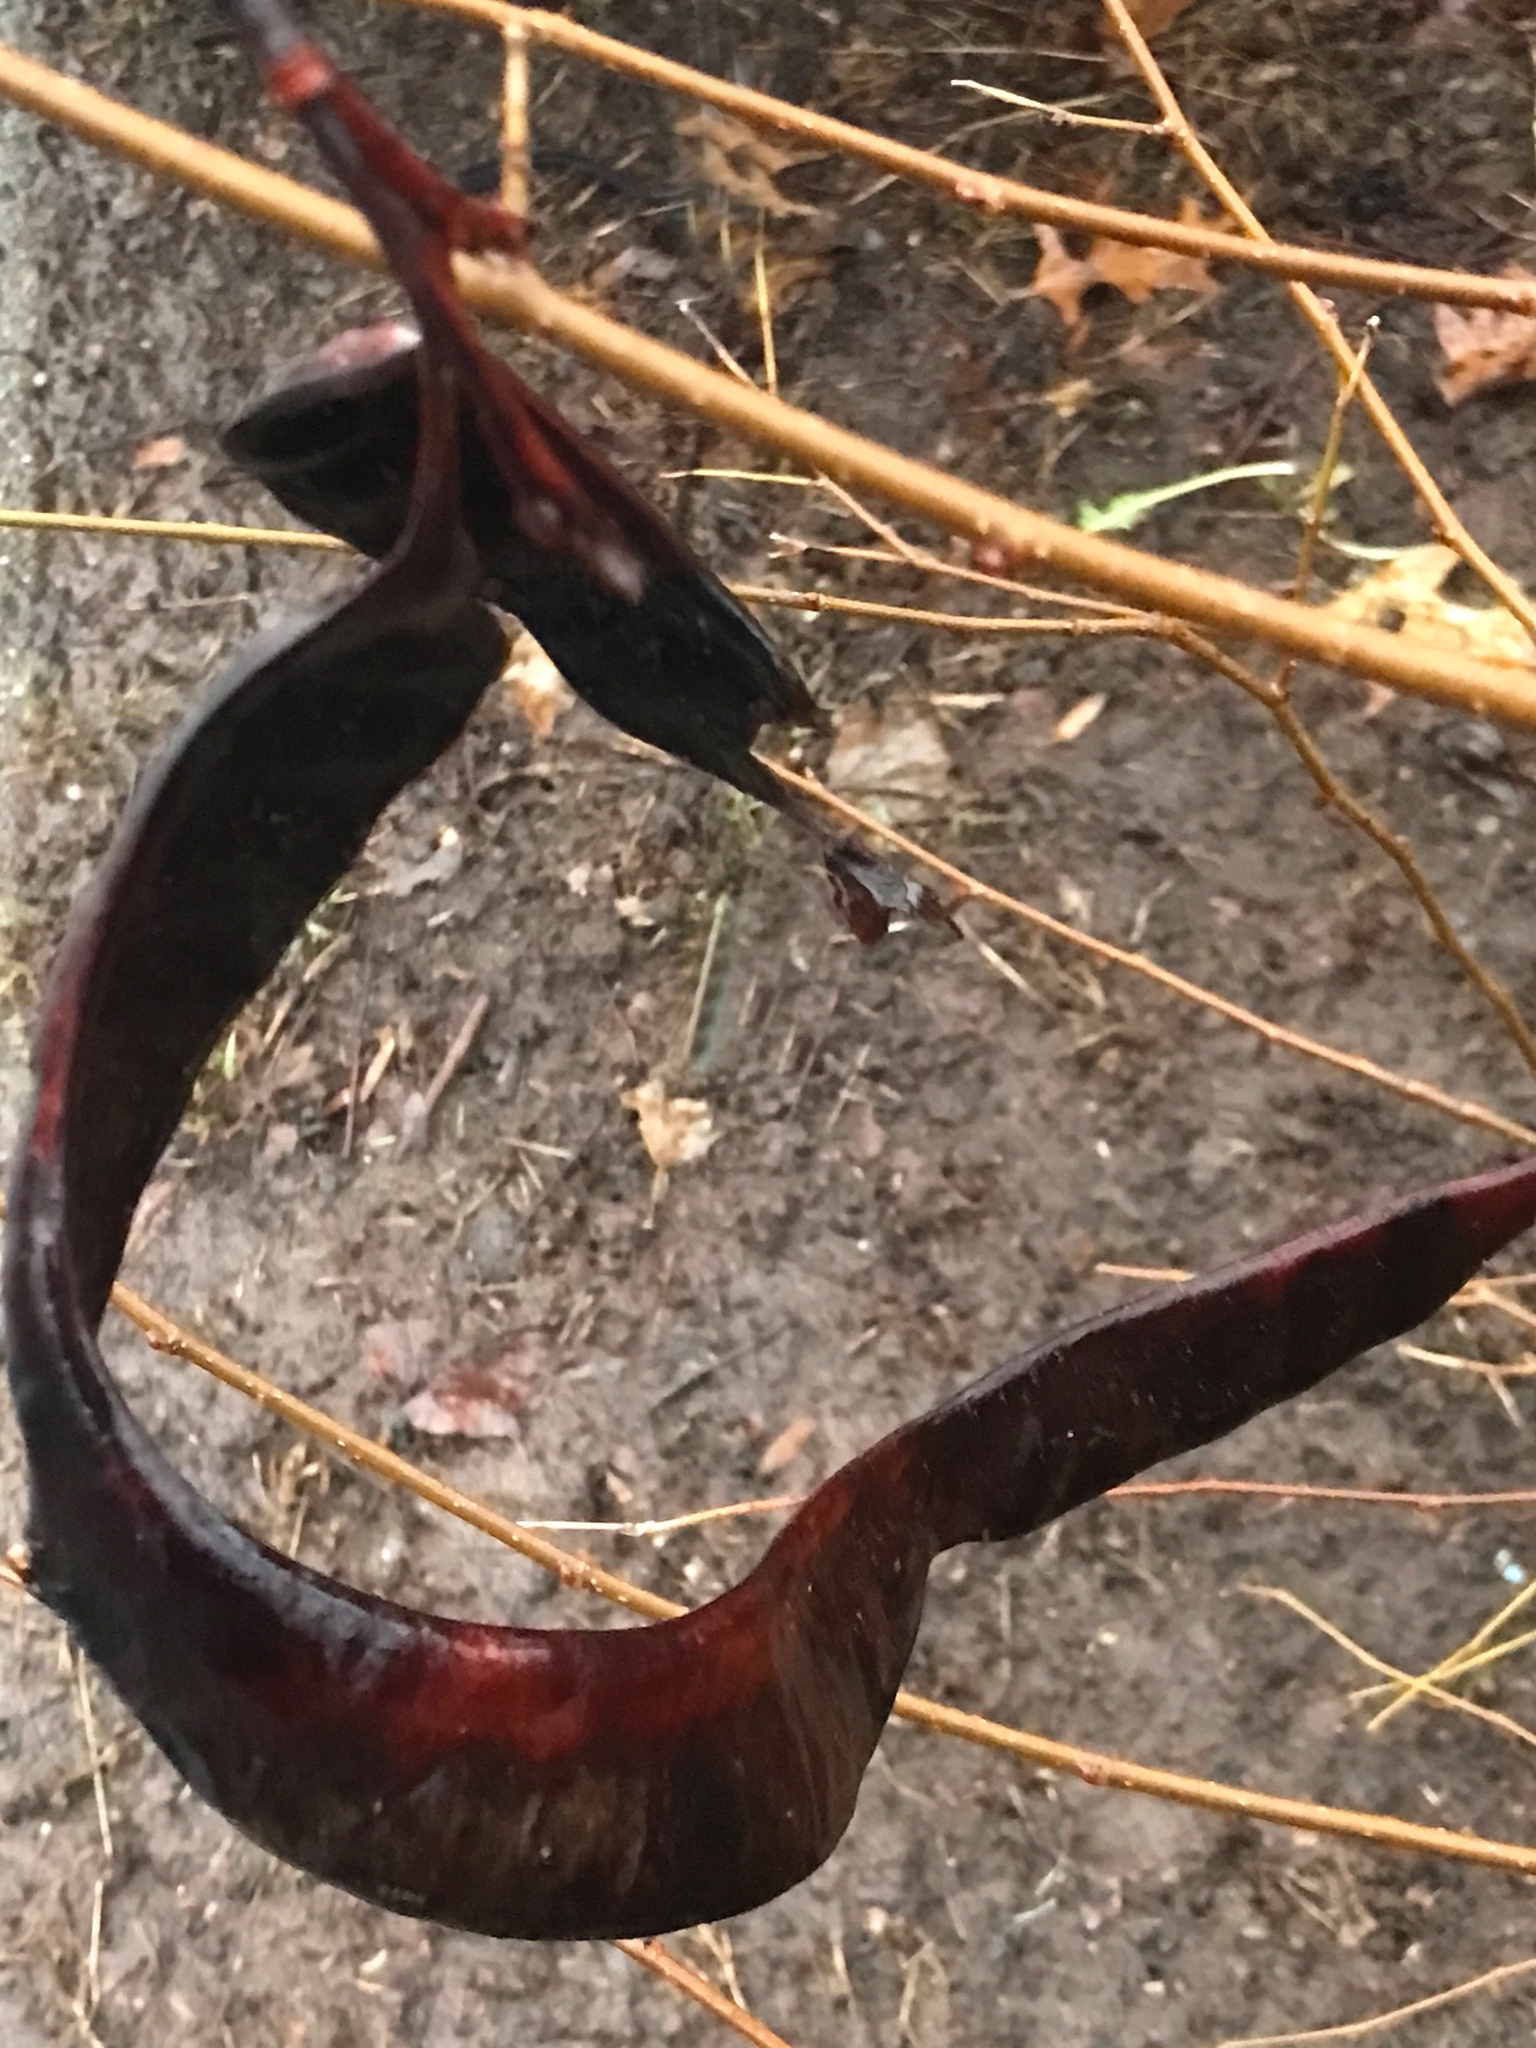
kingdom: Plantae
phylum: Tracheophyta
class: Magnoliopsida
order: Fabales
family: Fabaceae
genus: Gleditsia
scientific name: Gleditsia triacanthos
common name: Common honeylocust
